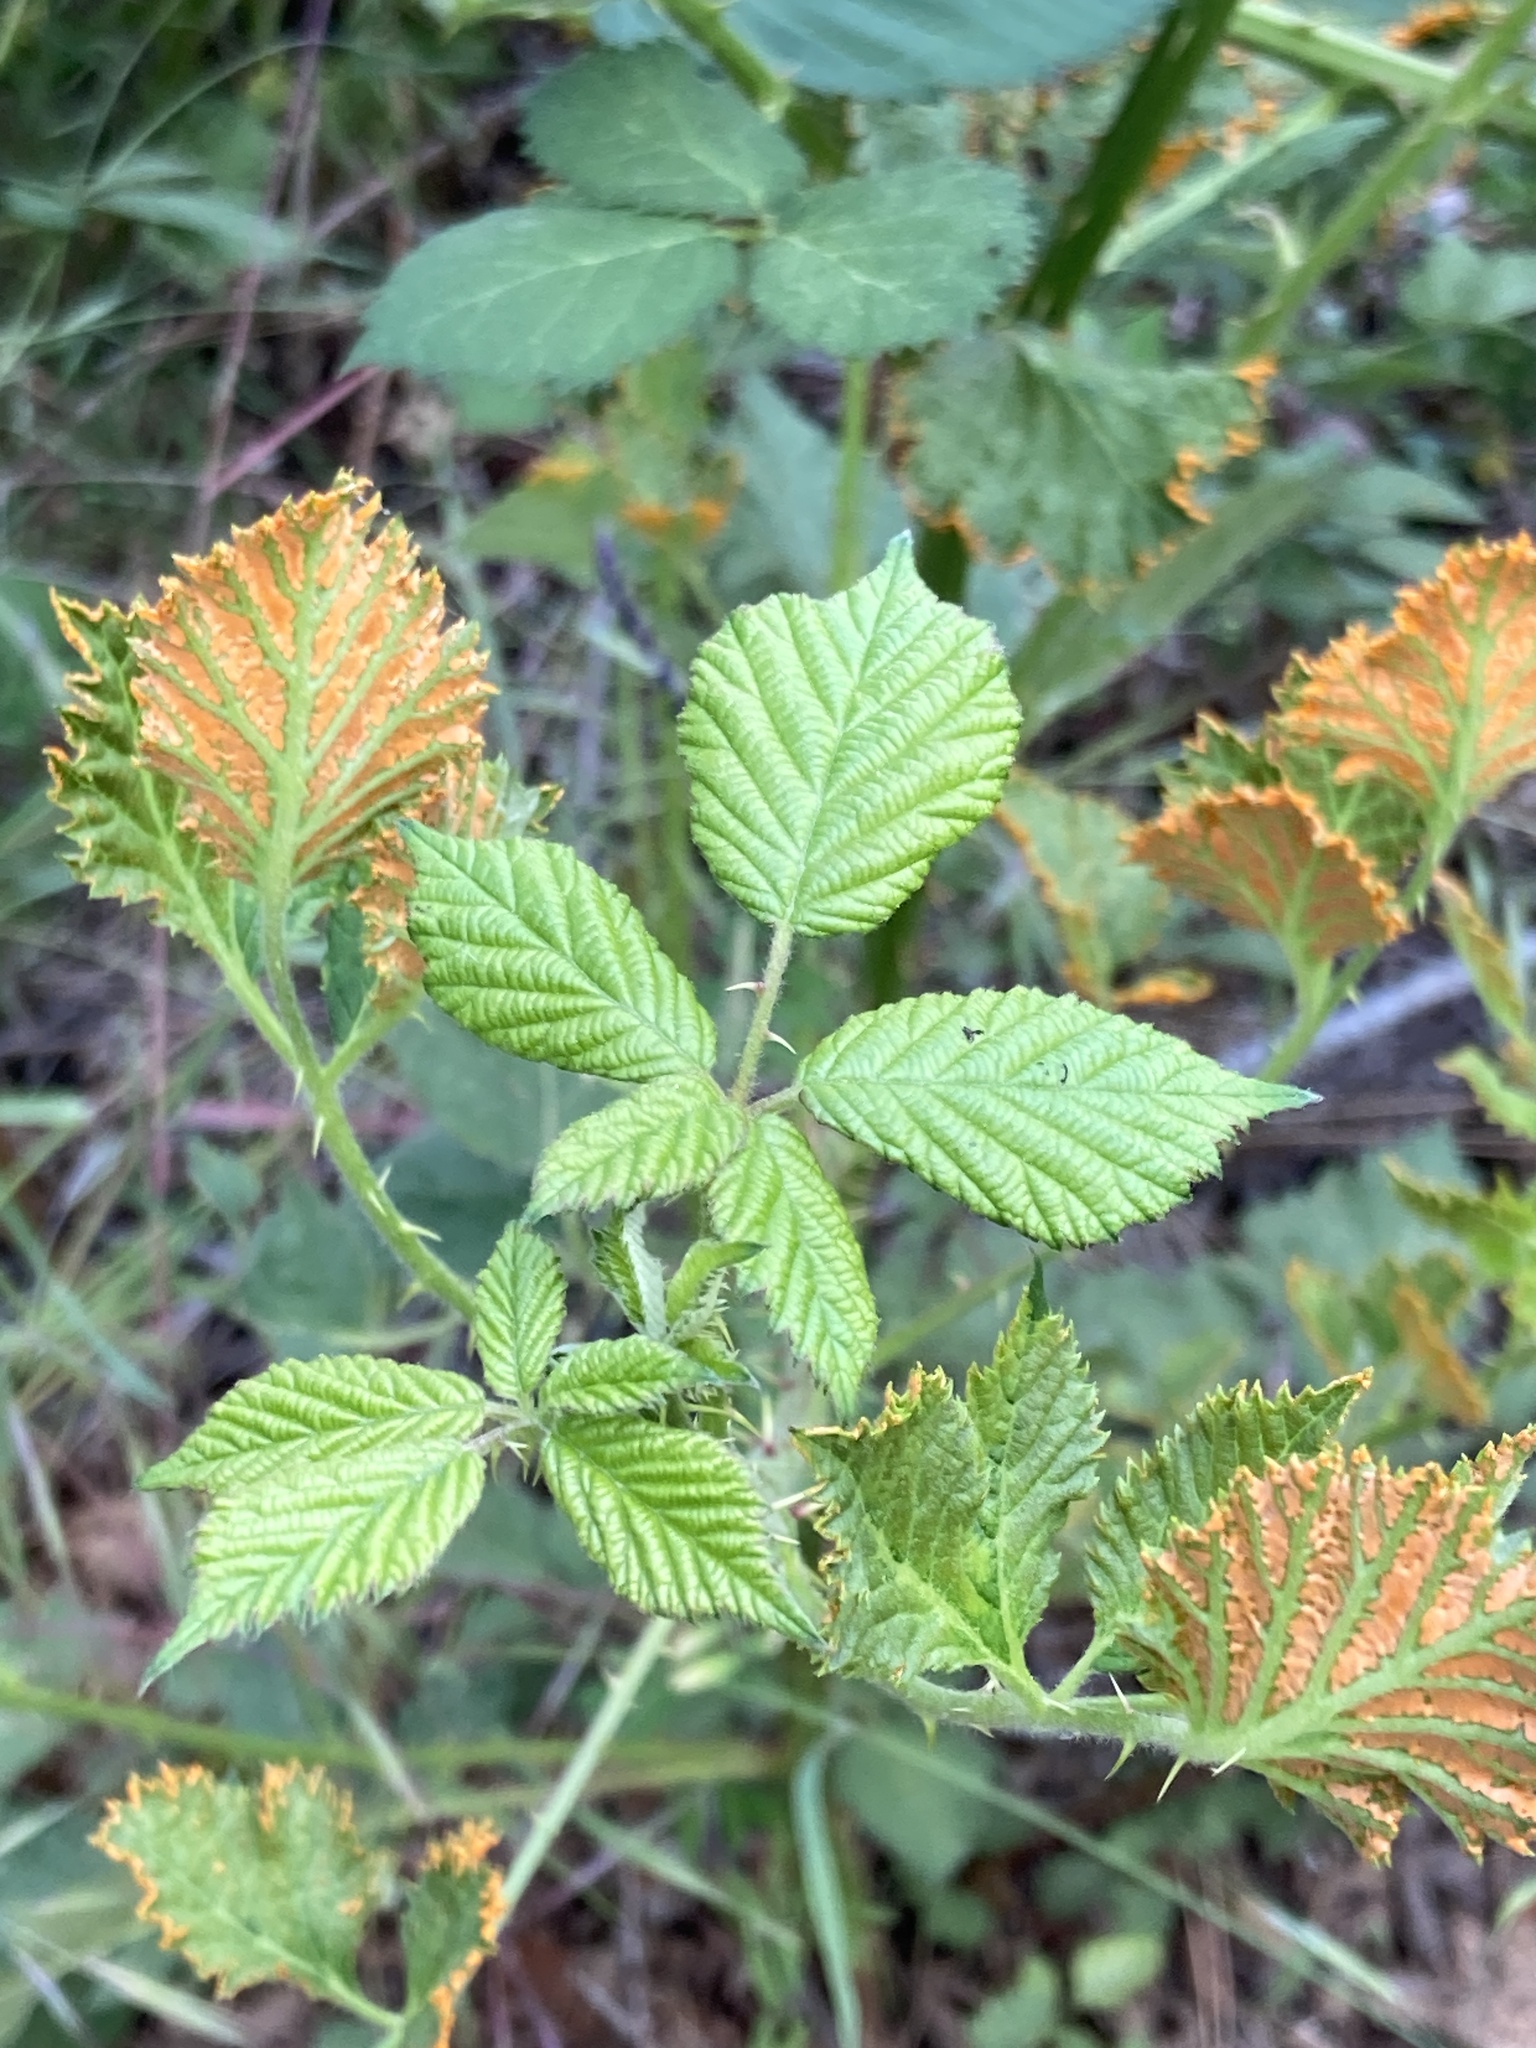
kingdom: Plantae
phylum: Tracheophyta
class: Magnoliopsida
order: Rosales
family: Rosaceae
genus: Rubus
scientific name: Rubus armeniacus
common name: Himalayan blackberry
